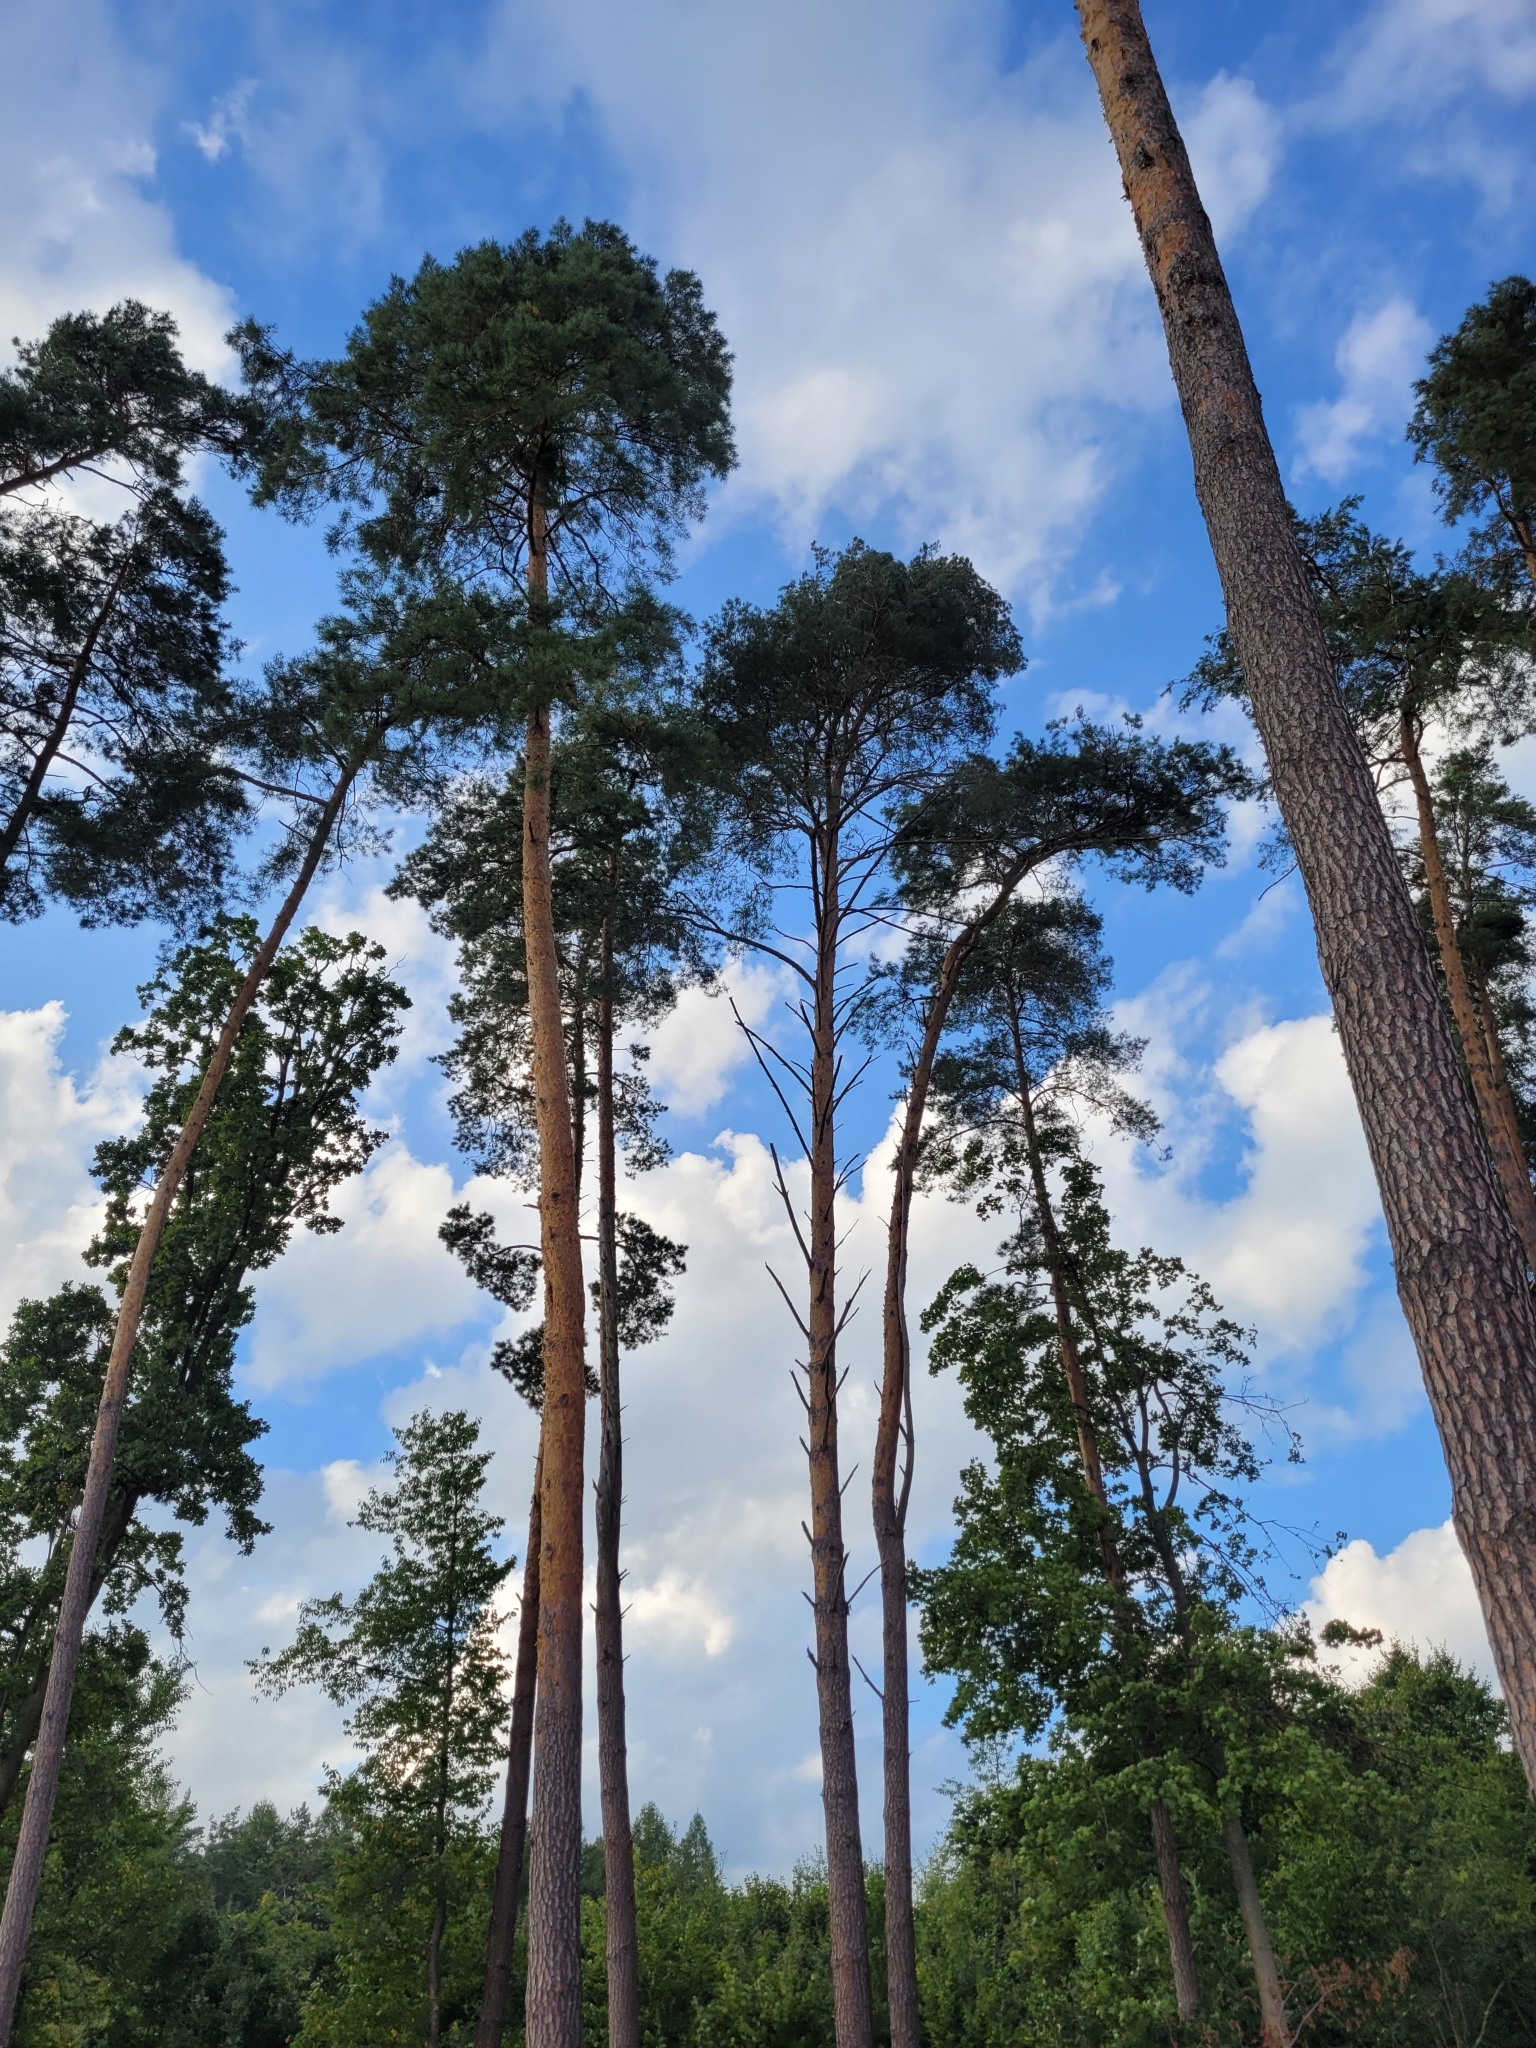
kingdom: Plantae
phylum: Tracheophyta
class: Pinopsida
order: Pinales
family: Pinaceae
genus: Pinus
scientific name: Pinus sylvestris
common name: Scots pine
